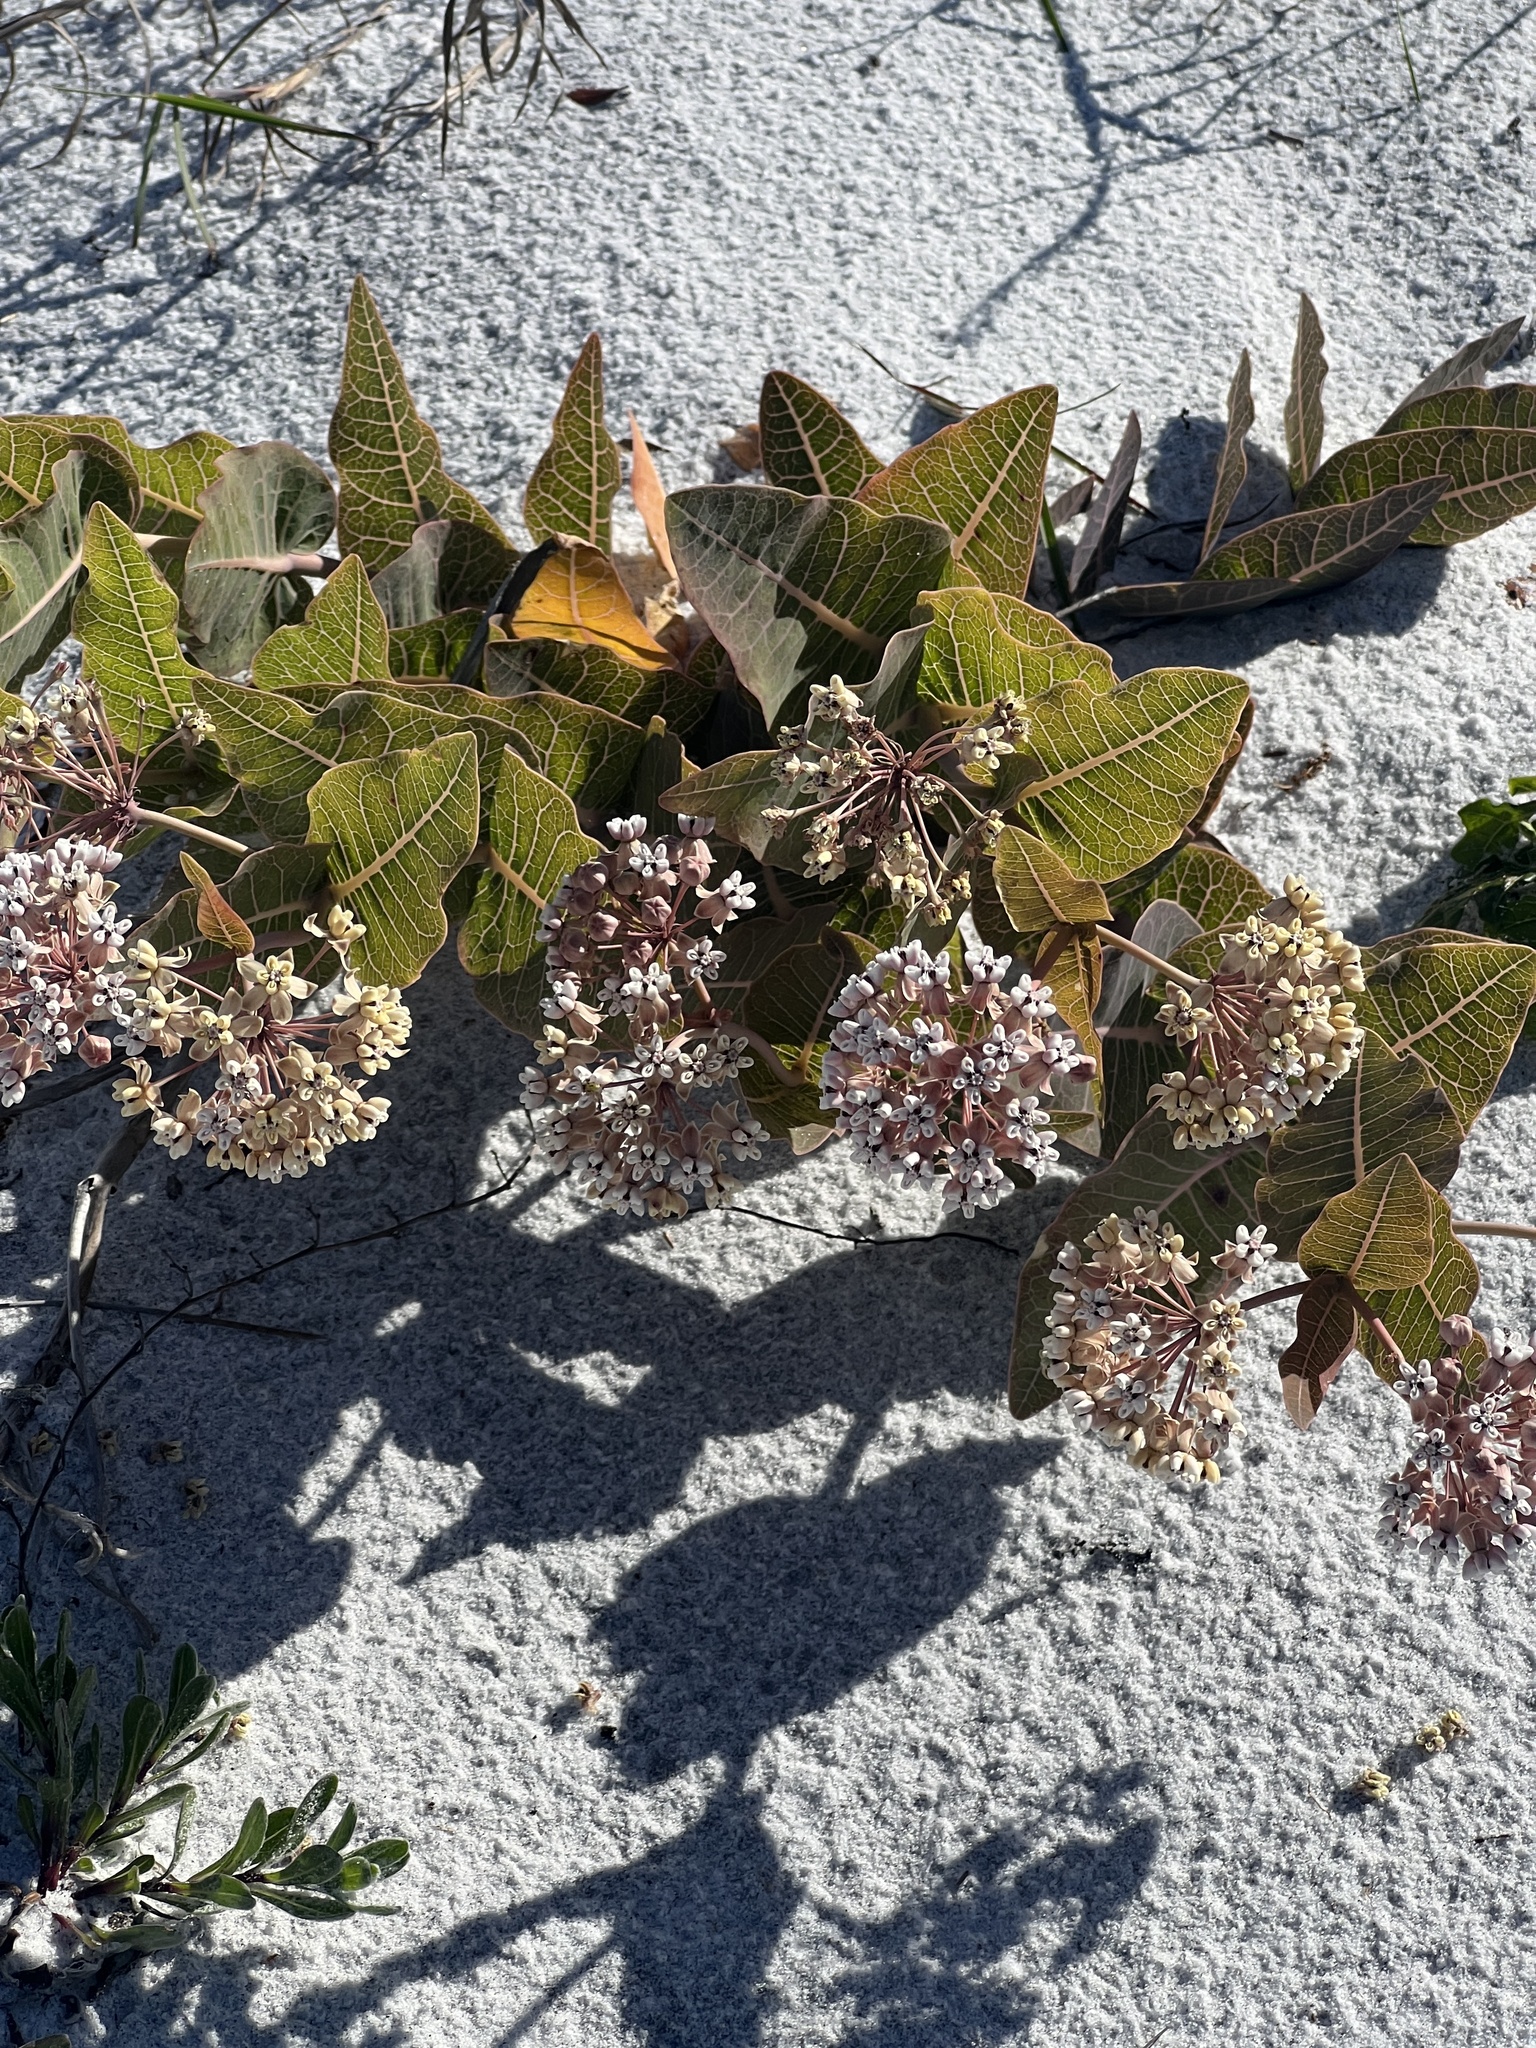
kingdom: Plantae
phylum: Tracheophyta
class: Magnoliopsida
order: Gentianales
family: Apocynaceae
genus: Asclepias
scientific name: Asclepias humistrata
